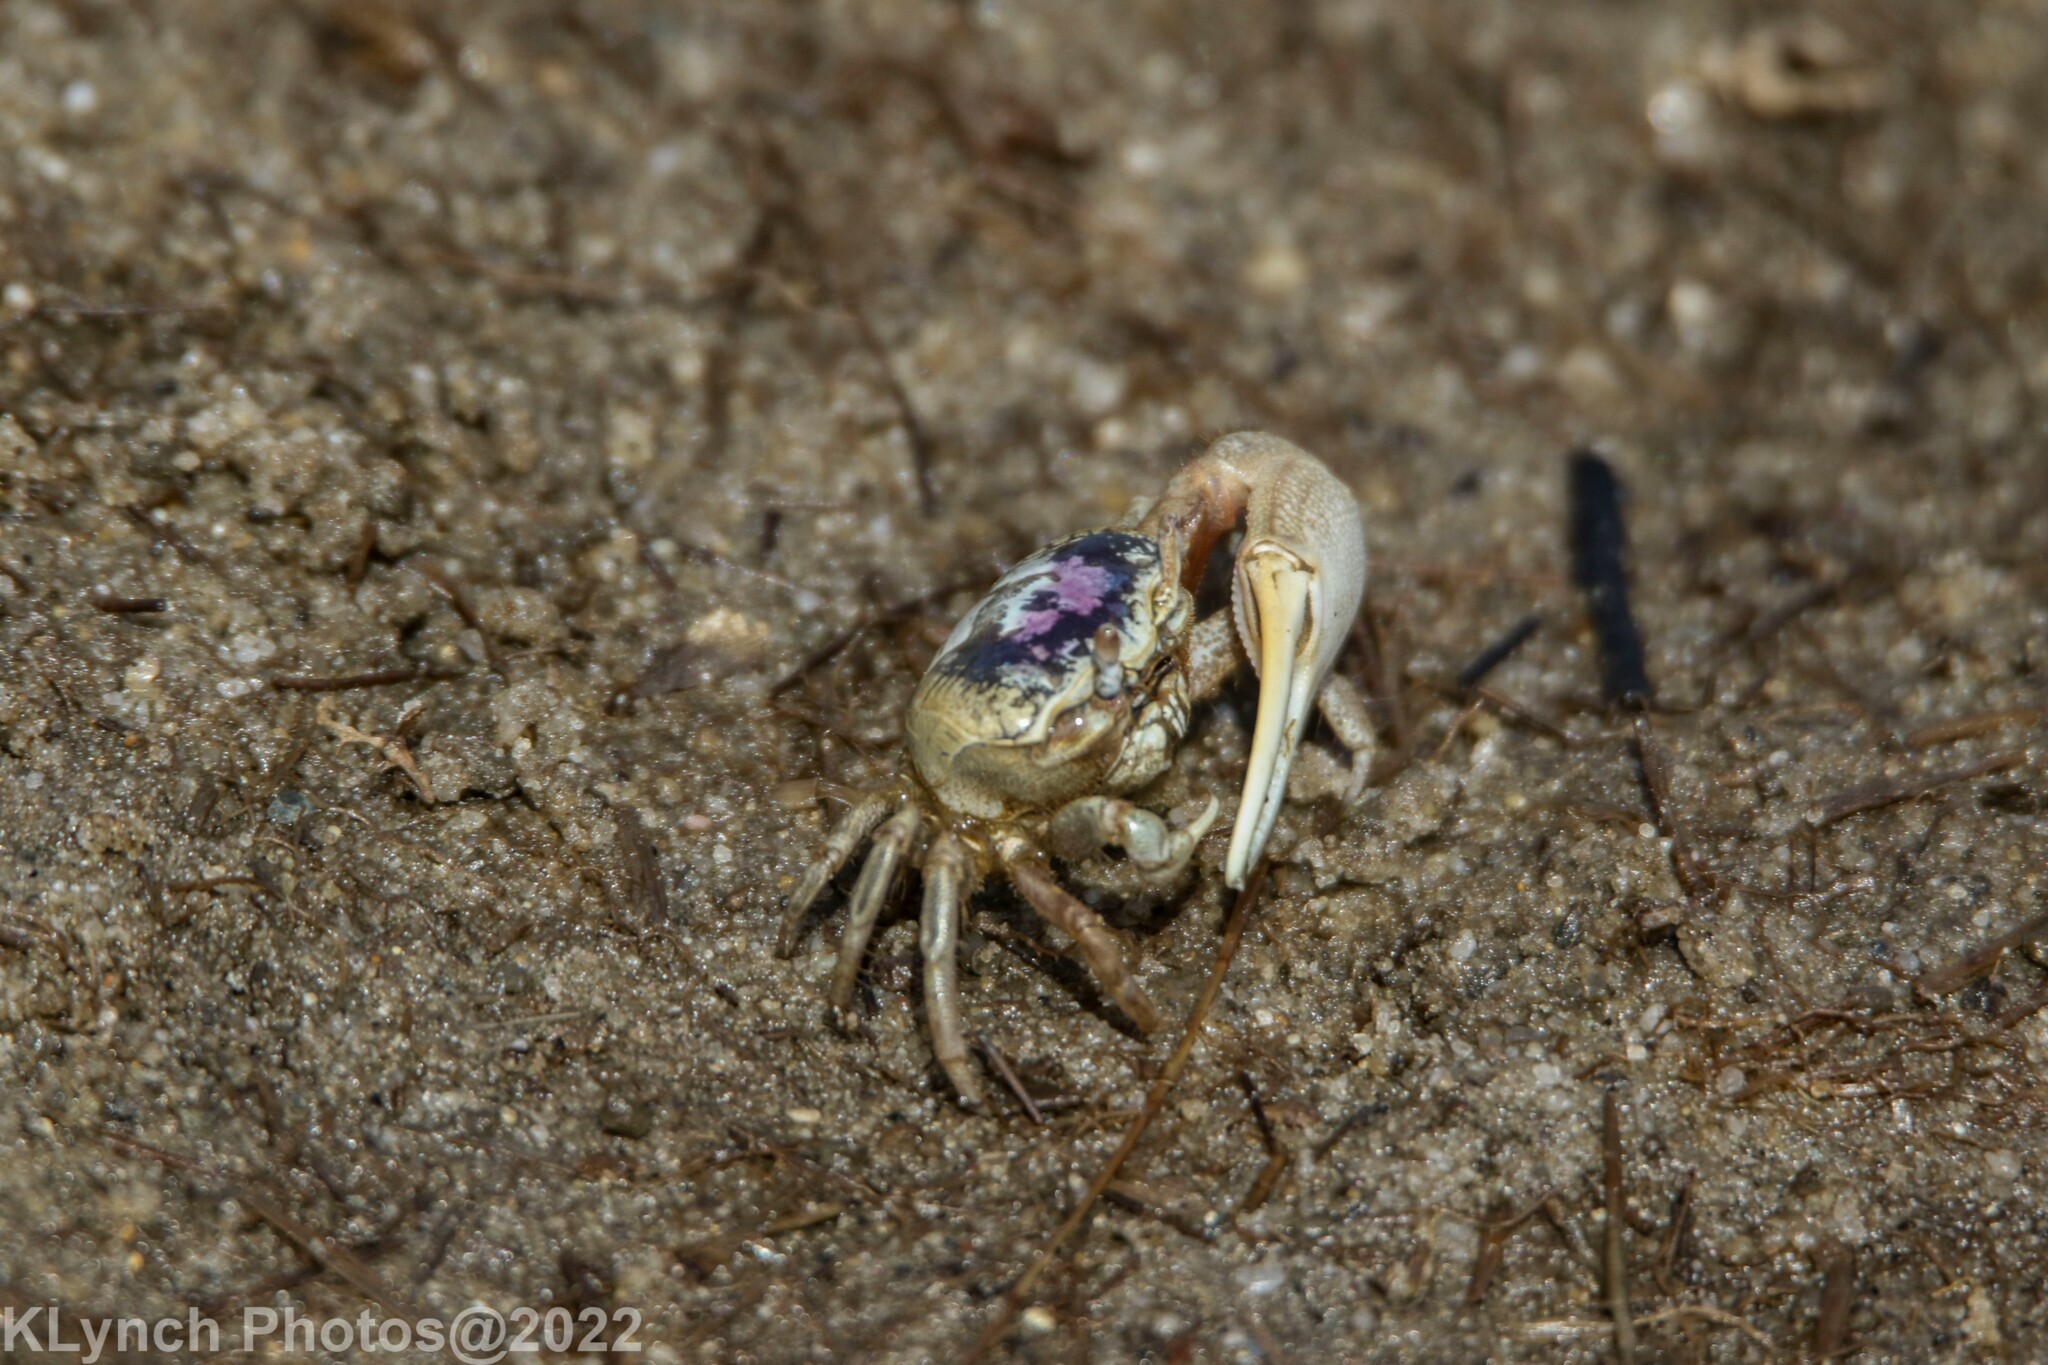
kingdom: Animalia
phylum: Arthropoda
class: Malacostraca
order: Decapoda
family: Ocypodidae
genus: Leptuca
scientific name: Leptuca pugilator
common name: Atlantic sand fiddler crab
